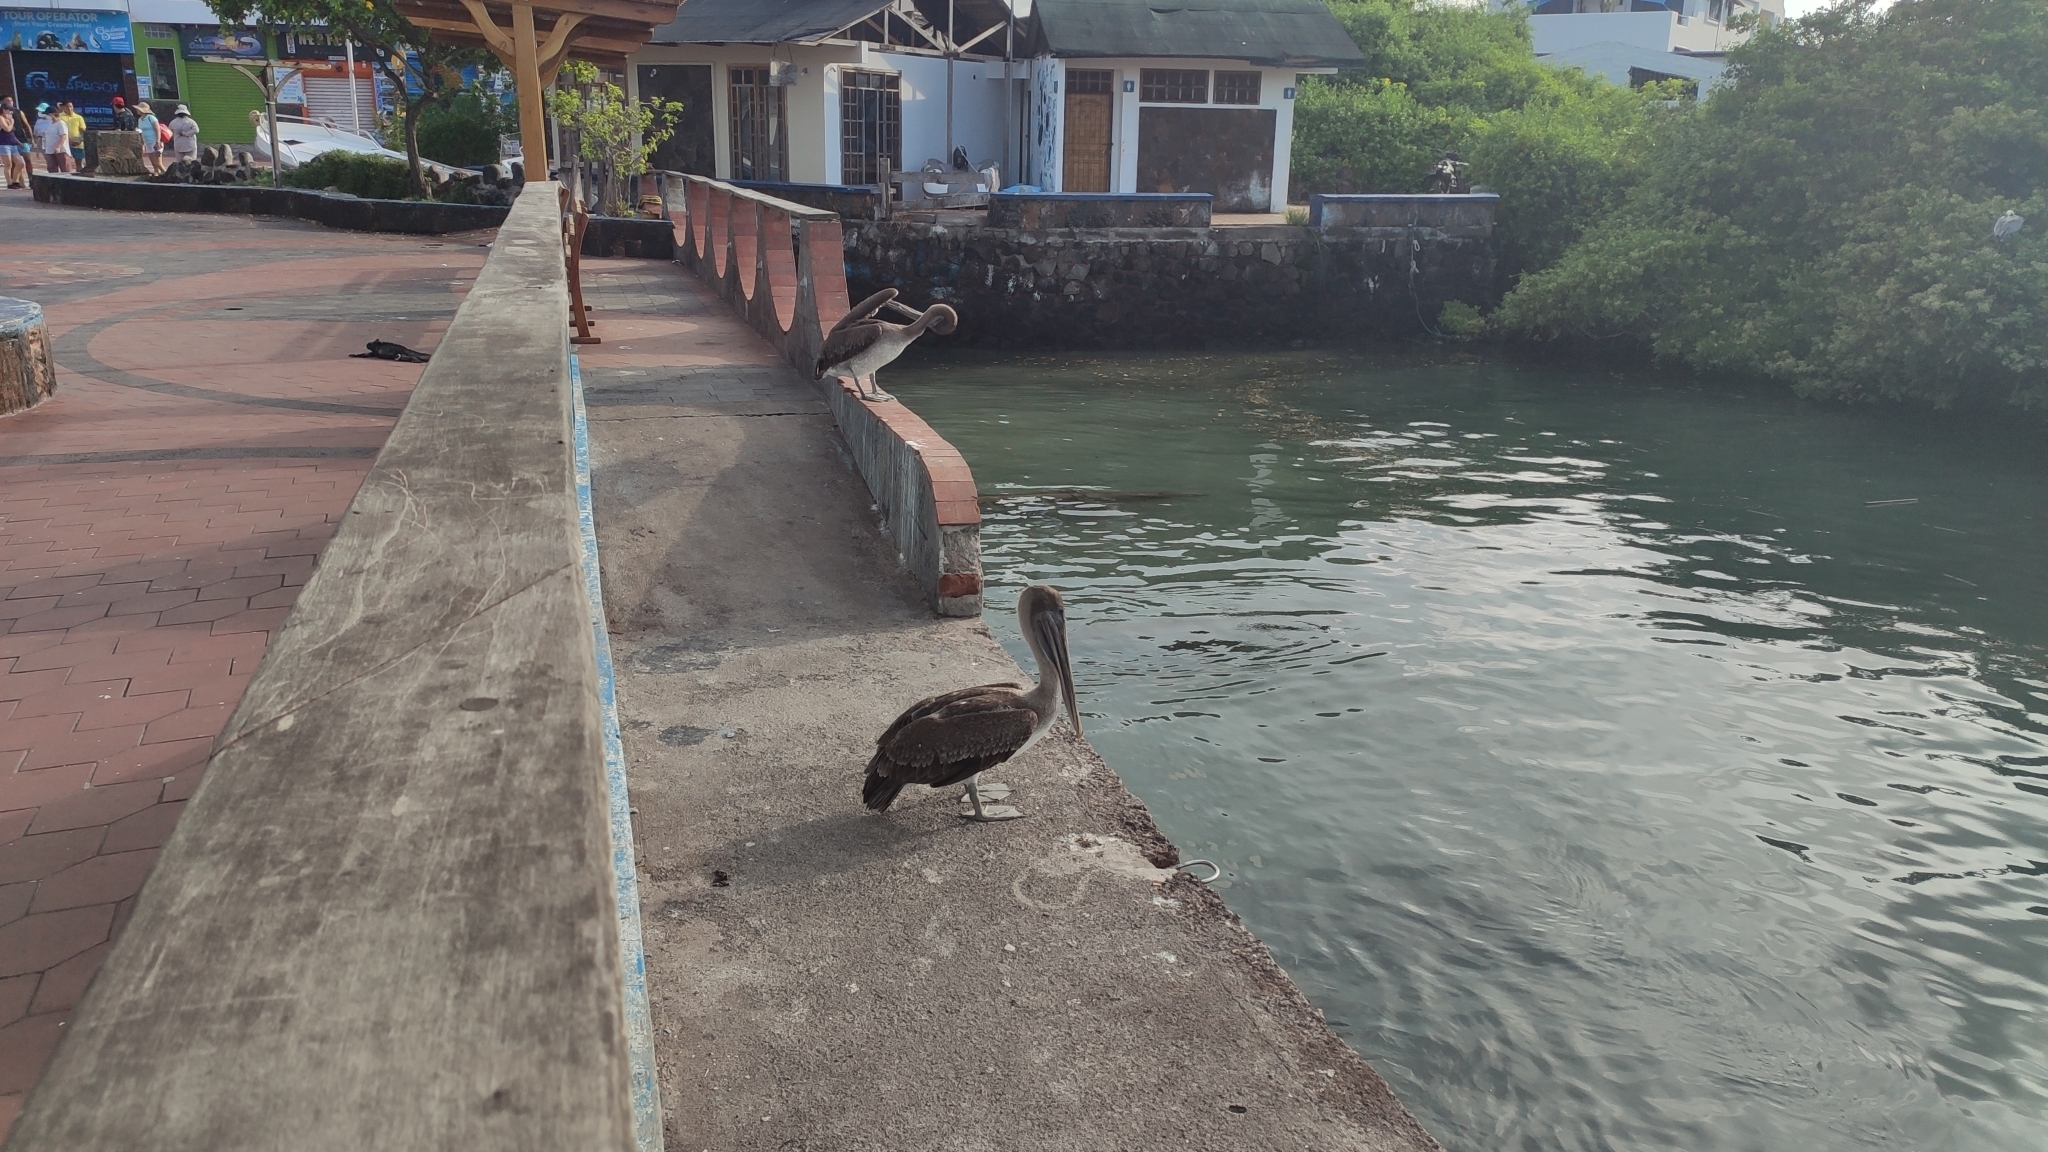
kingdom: Animalia
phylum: Chordata
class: Aves
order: Pelecaniformes
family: Pelecanidae
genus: Pelecanus
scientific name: Pelecanus occidentalis
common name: Brown pelican
